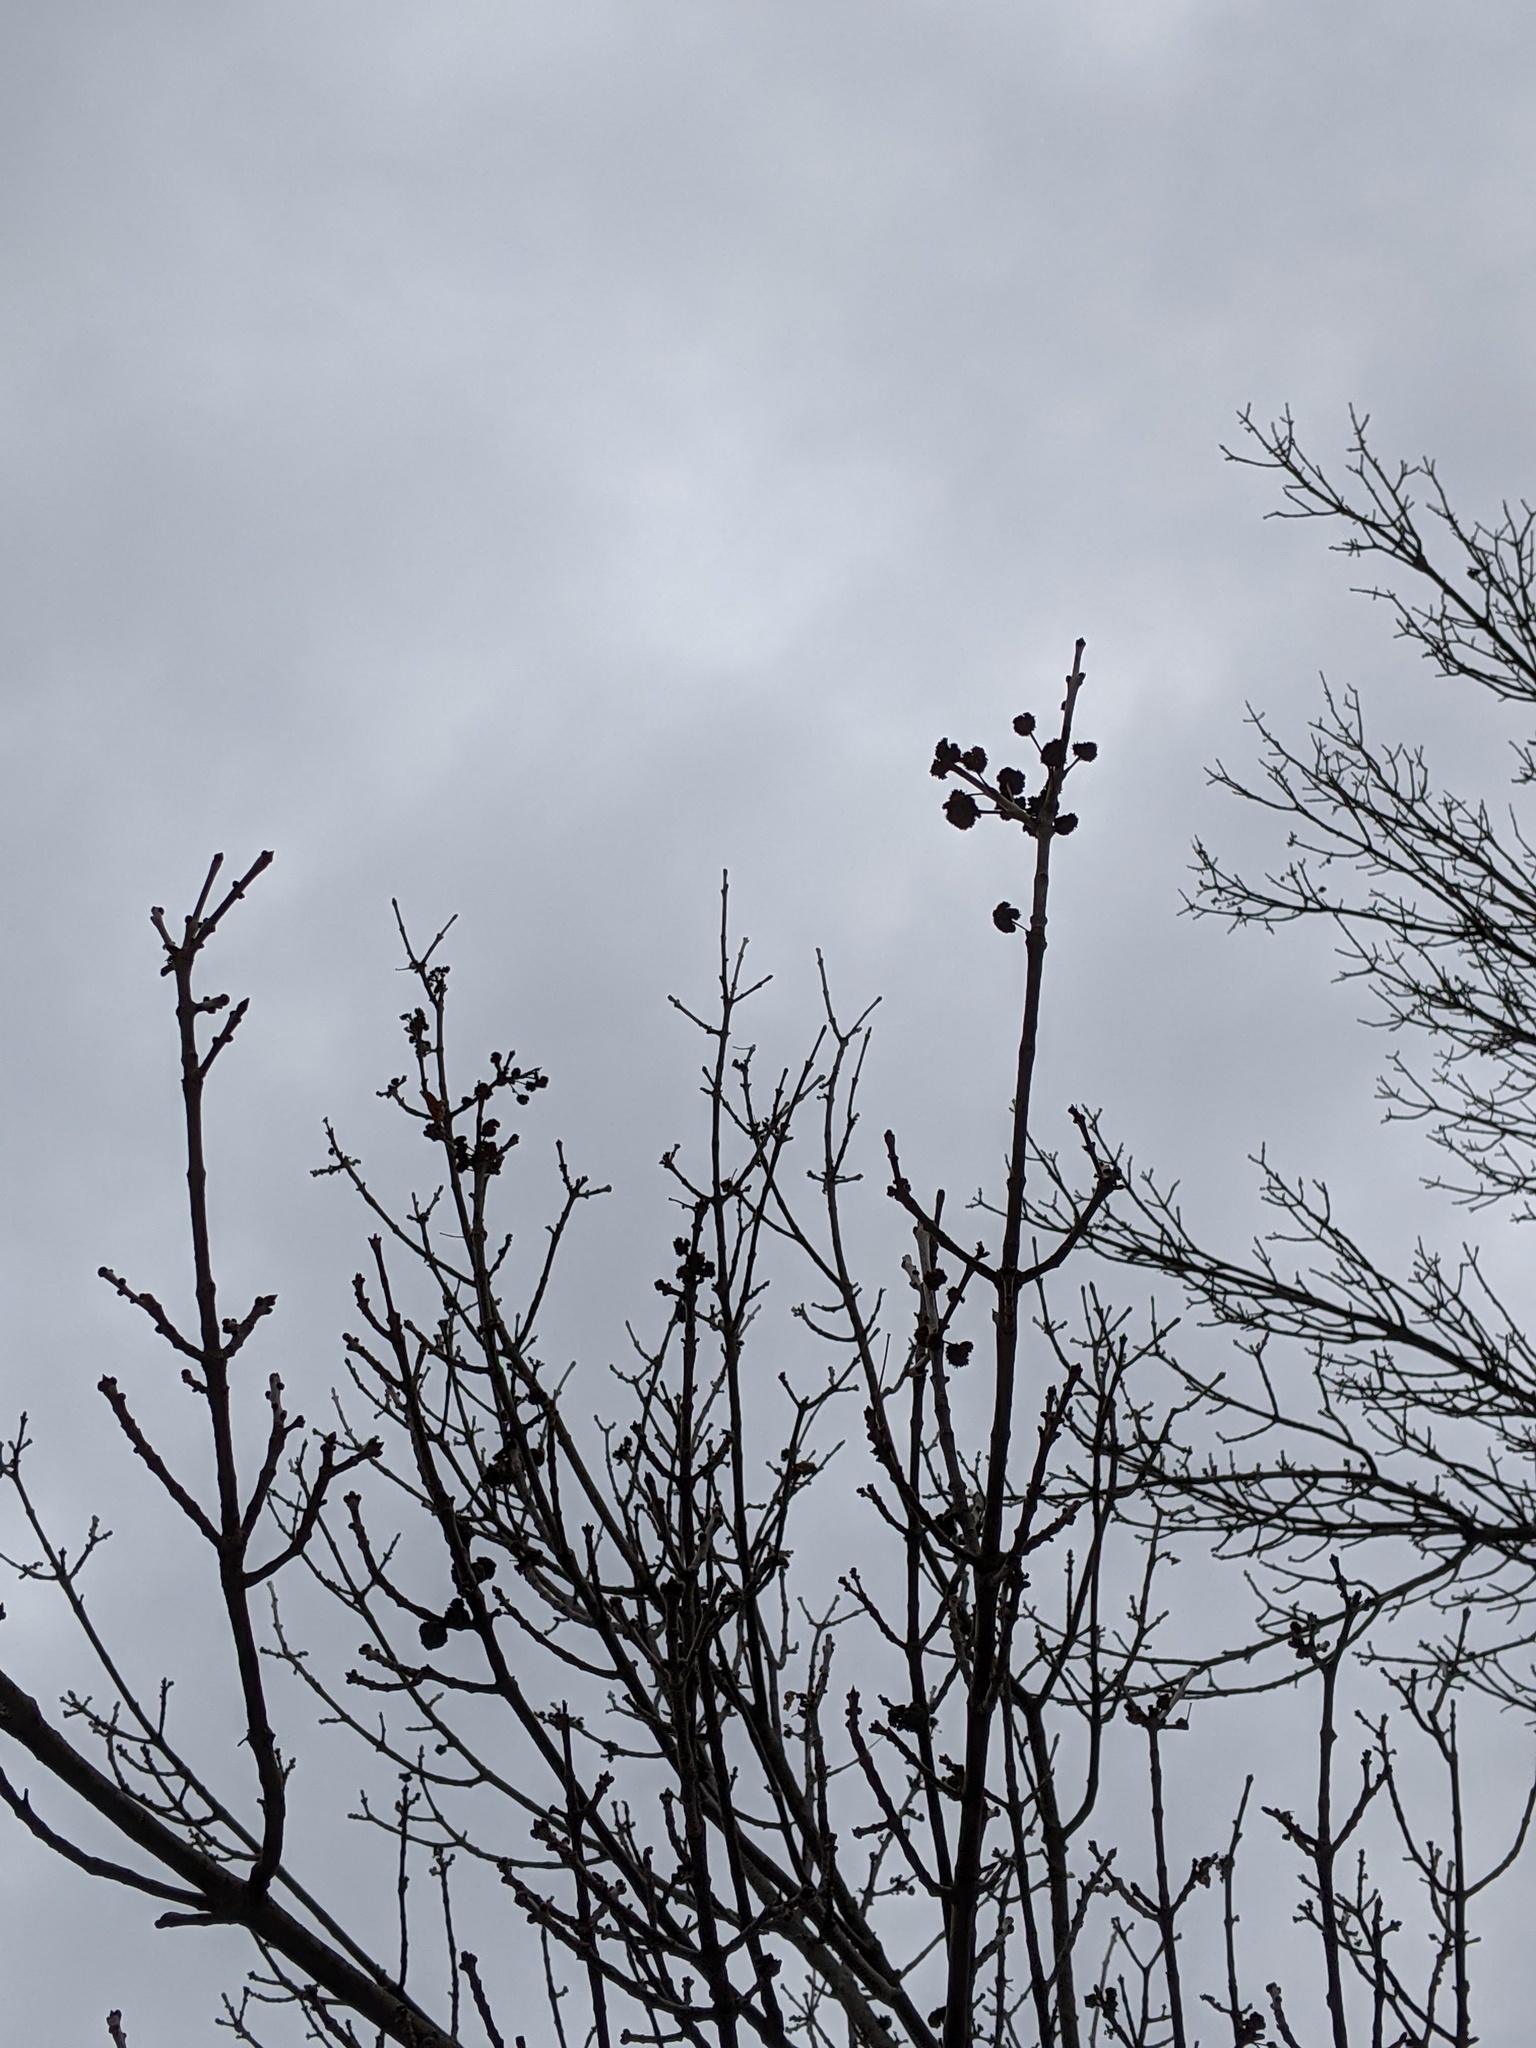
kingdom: Animalia
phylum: Arthropoda
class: Arachnida
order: Trombidiformes
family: Eriophyidae
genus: Aceria
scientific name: Aceria fraxiniflora
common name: Ash flower gall mite
